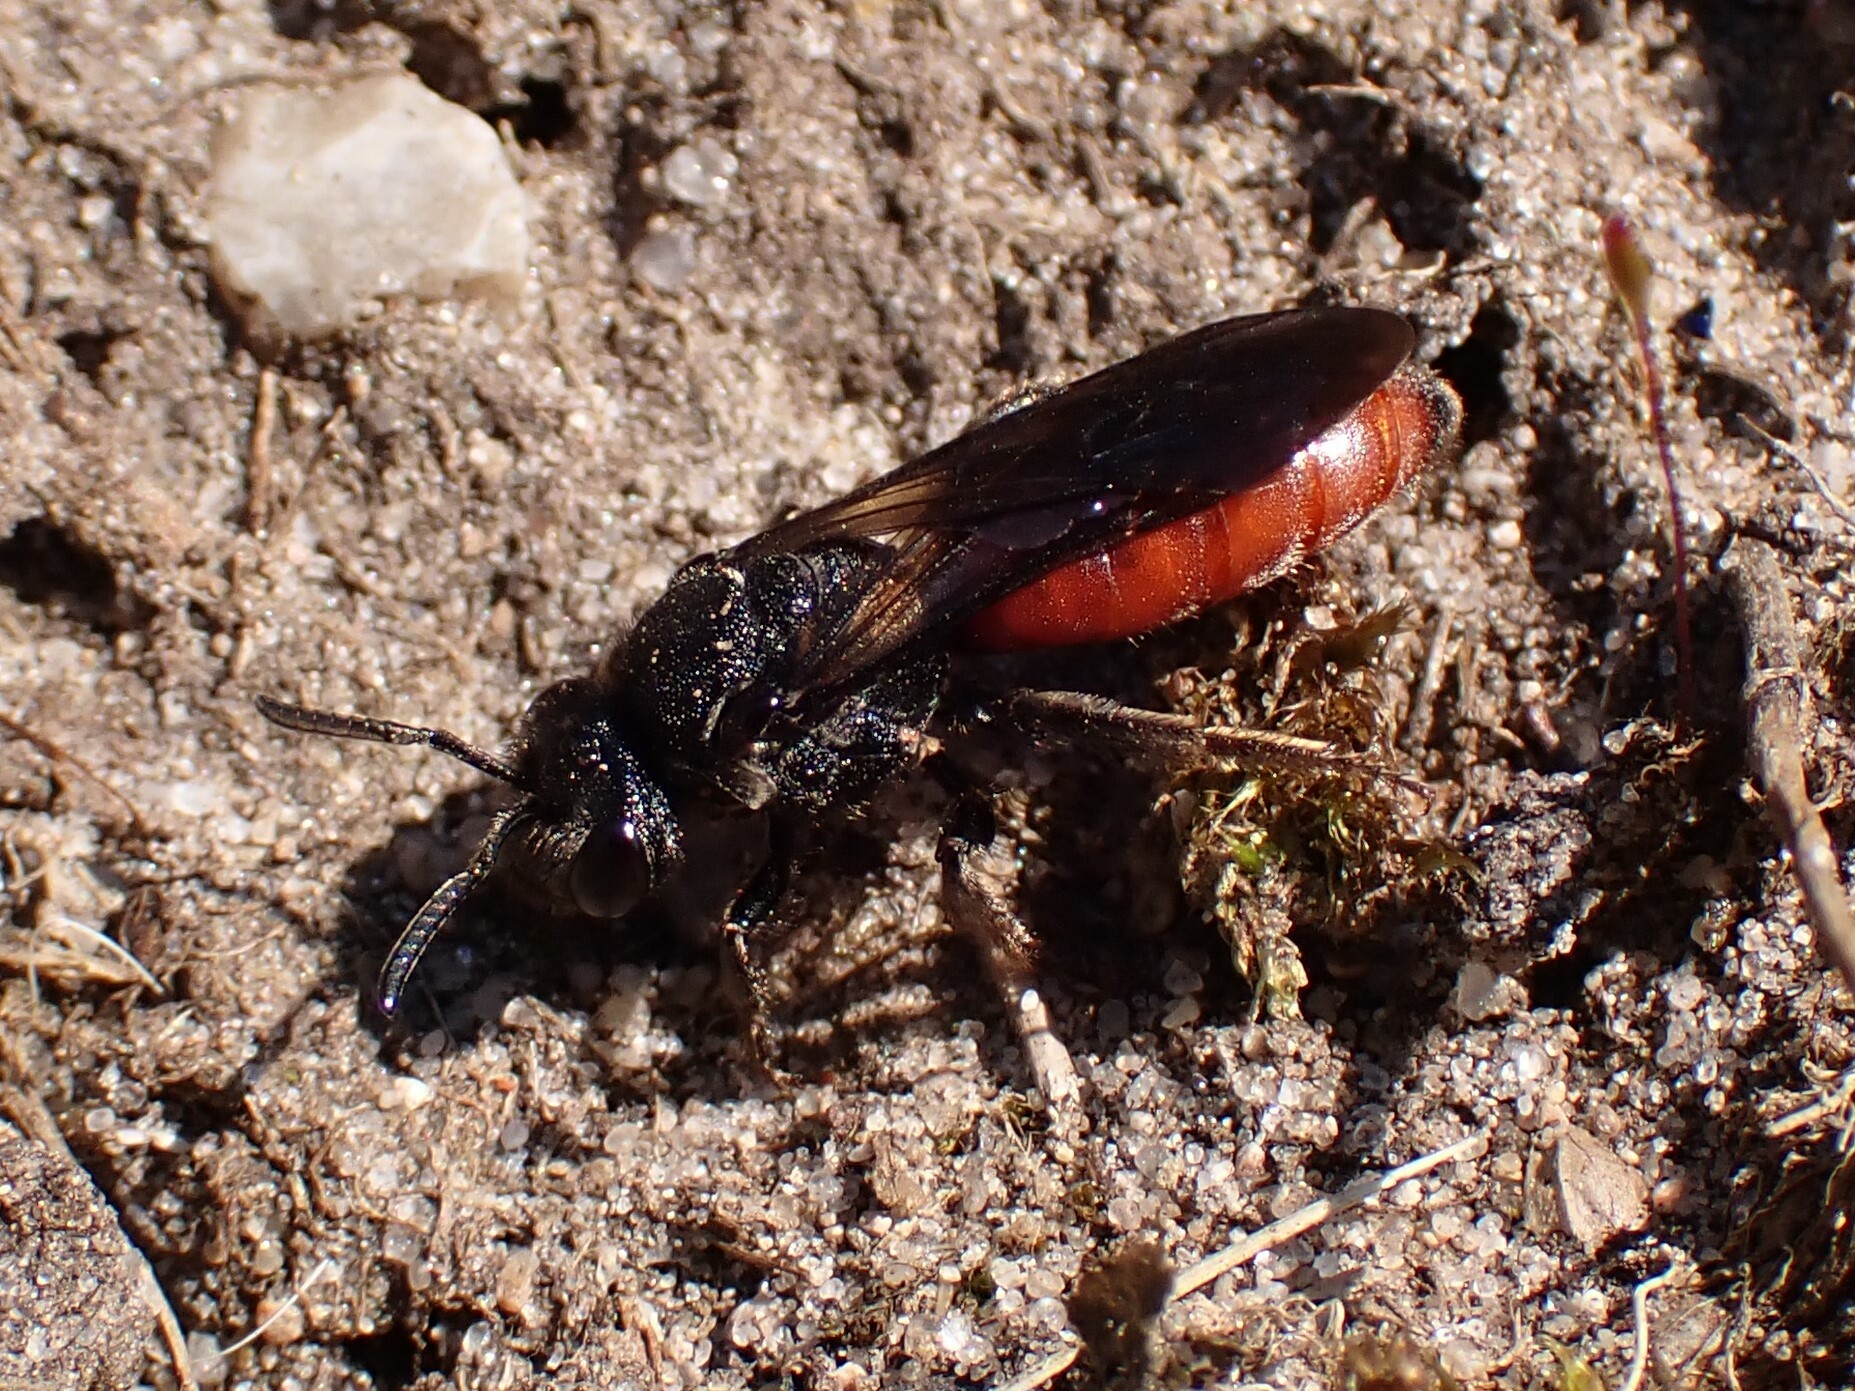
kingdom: Animalia
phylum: Arthropoda
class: Insecta
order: Hymenoptera
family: Halictidae
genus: Sphecodes
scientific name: Sphecodes albilabris
